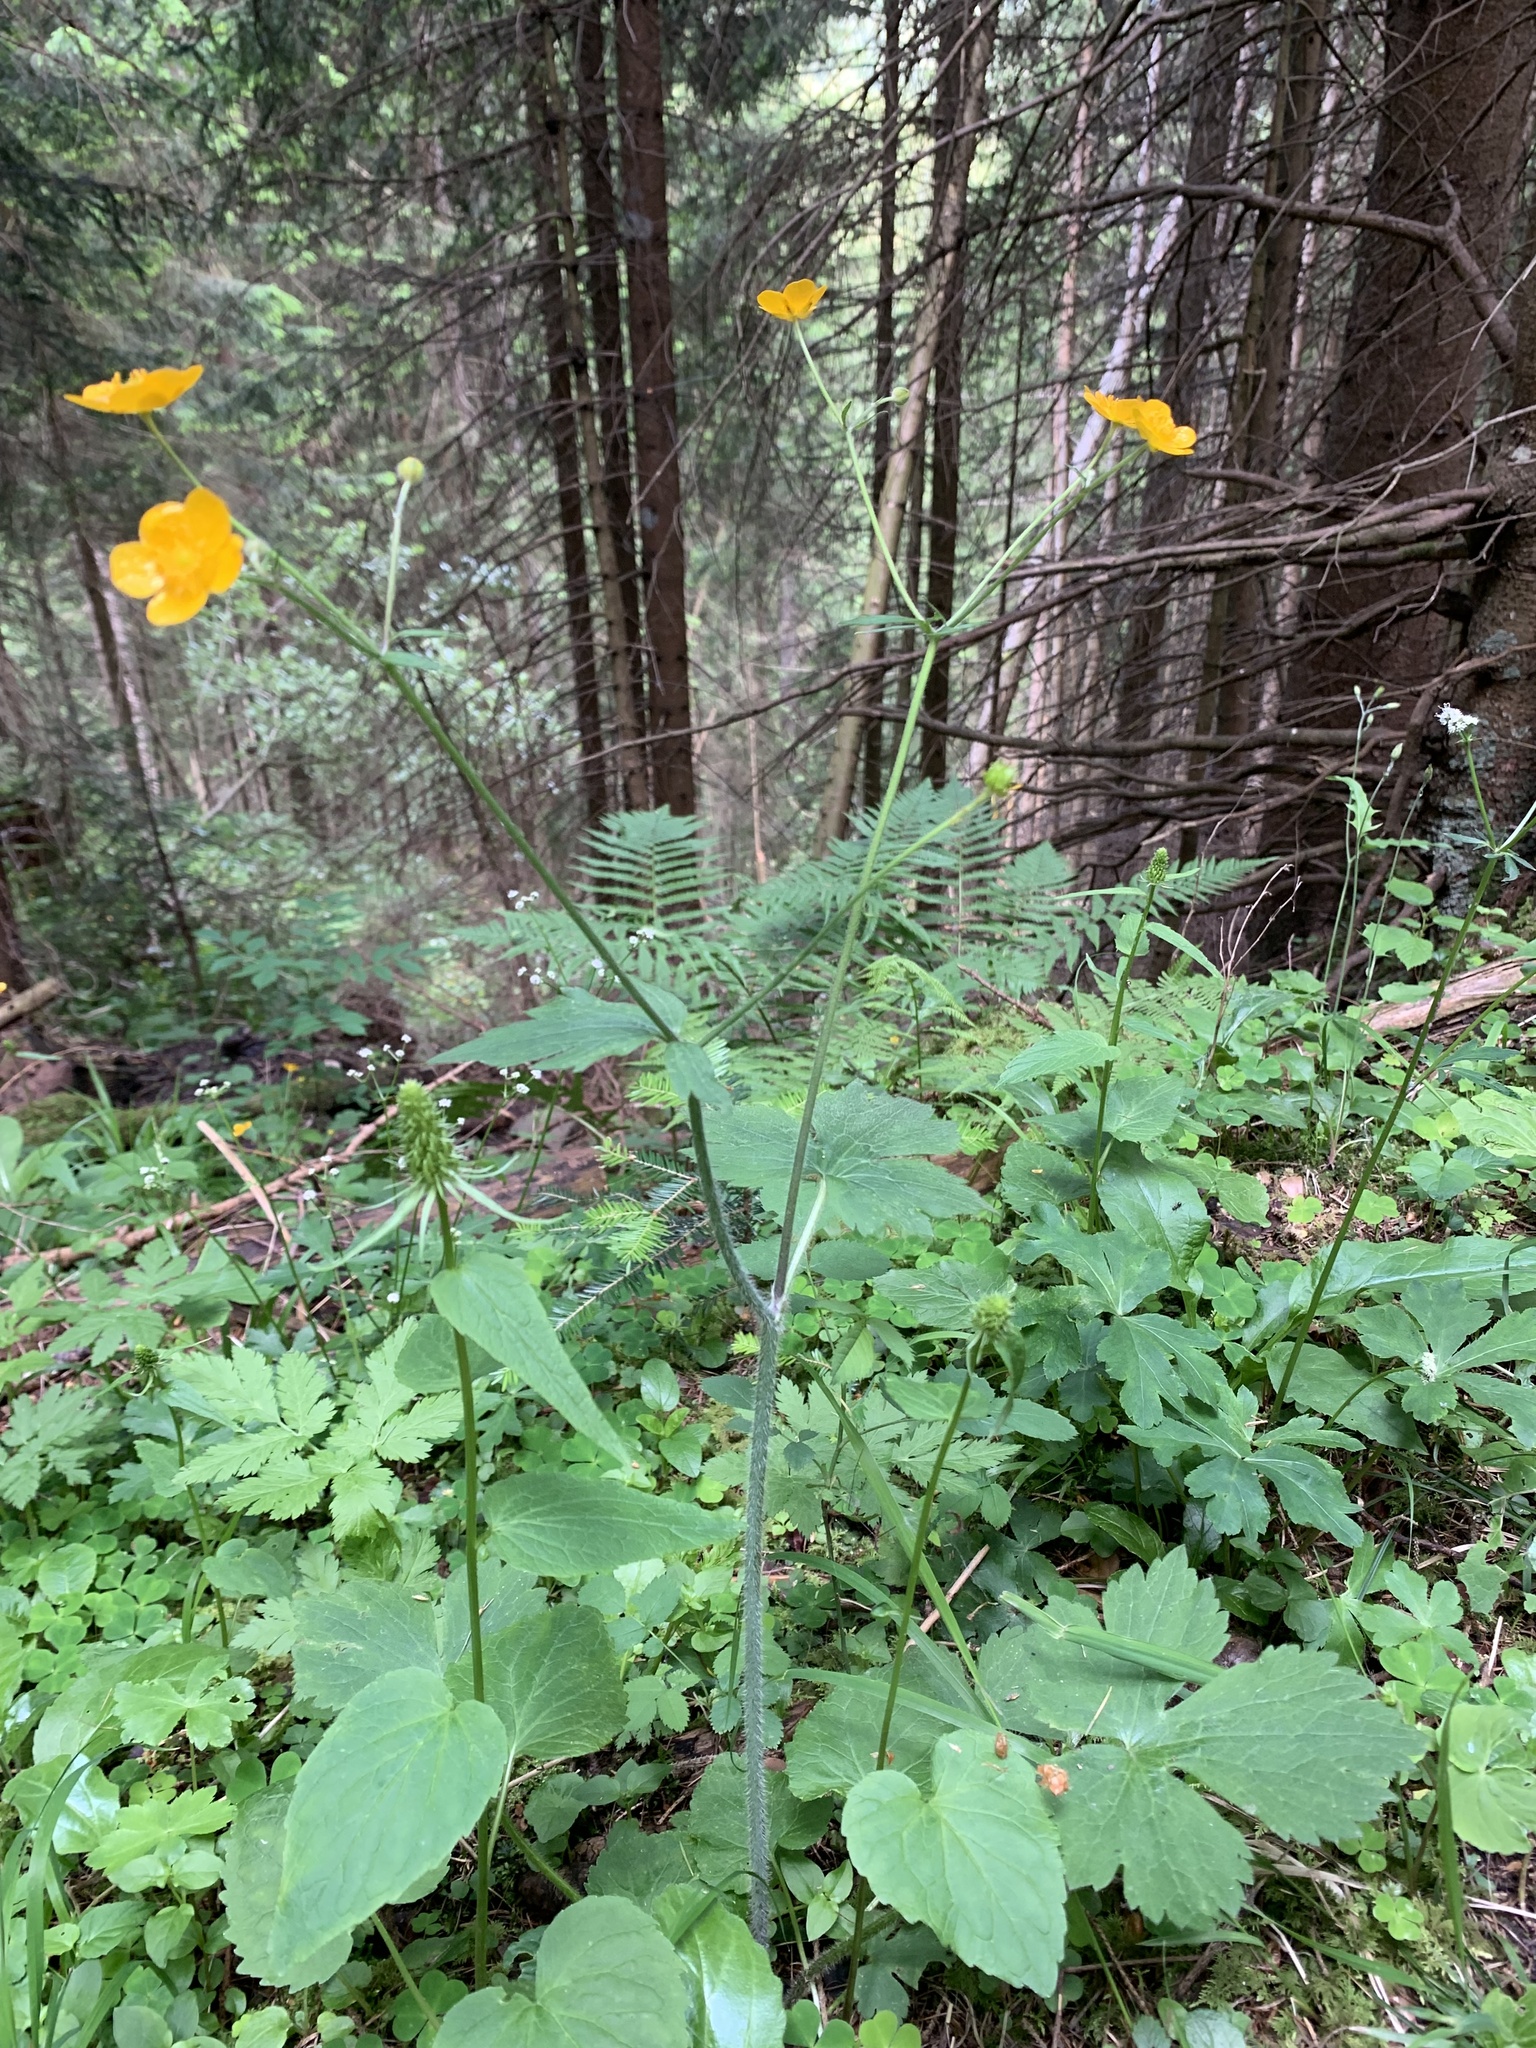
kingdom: Plantae
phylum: Tracheophyta
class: Magnoliopsida
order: Ranunculales
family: Ranunculaceae
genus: Ranunculus
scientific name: Ranunculus lanuginosus
